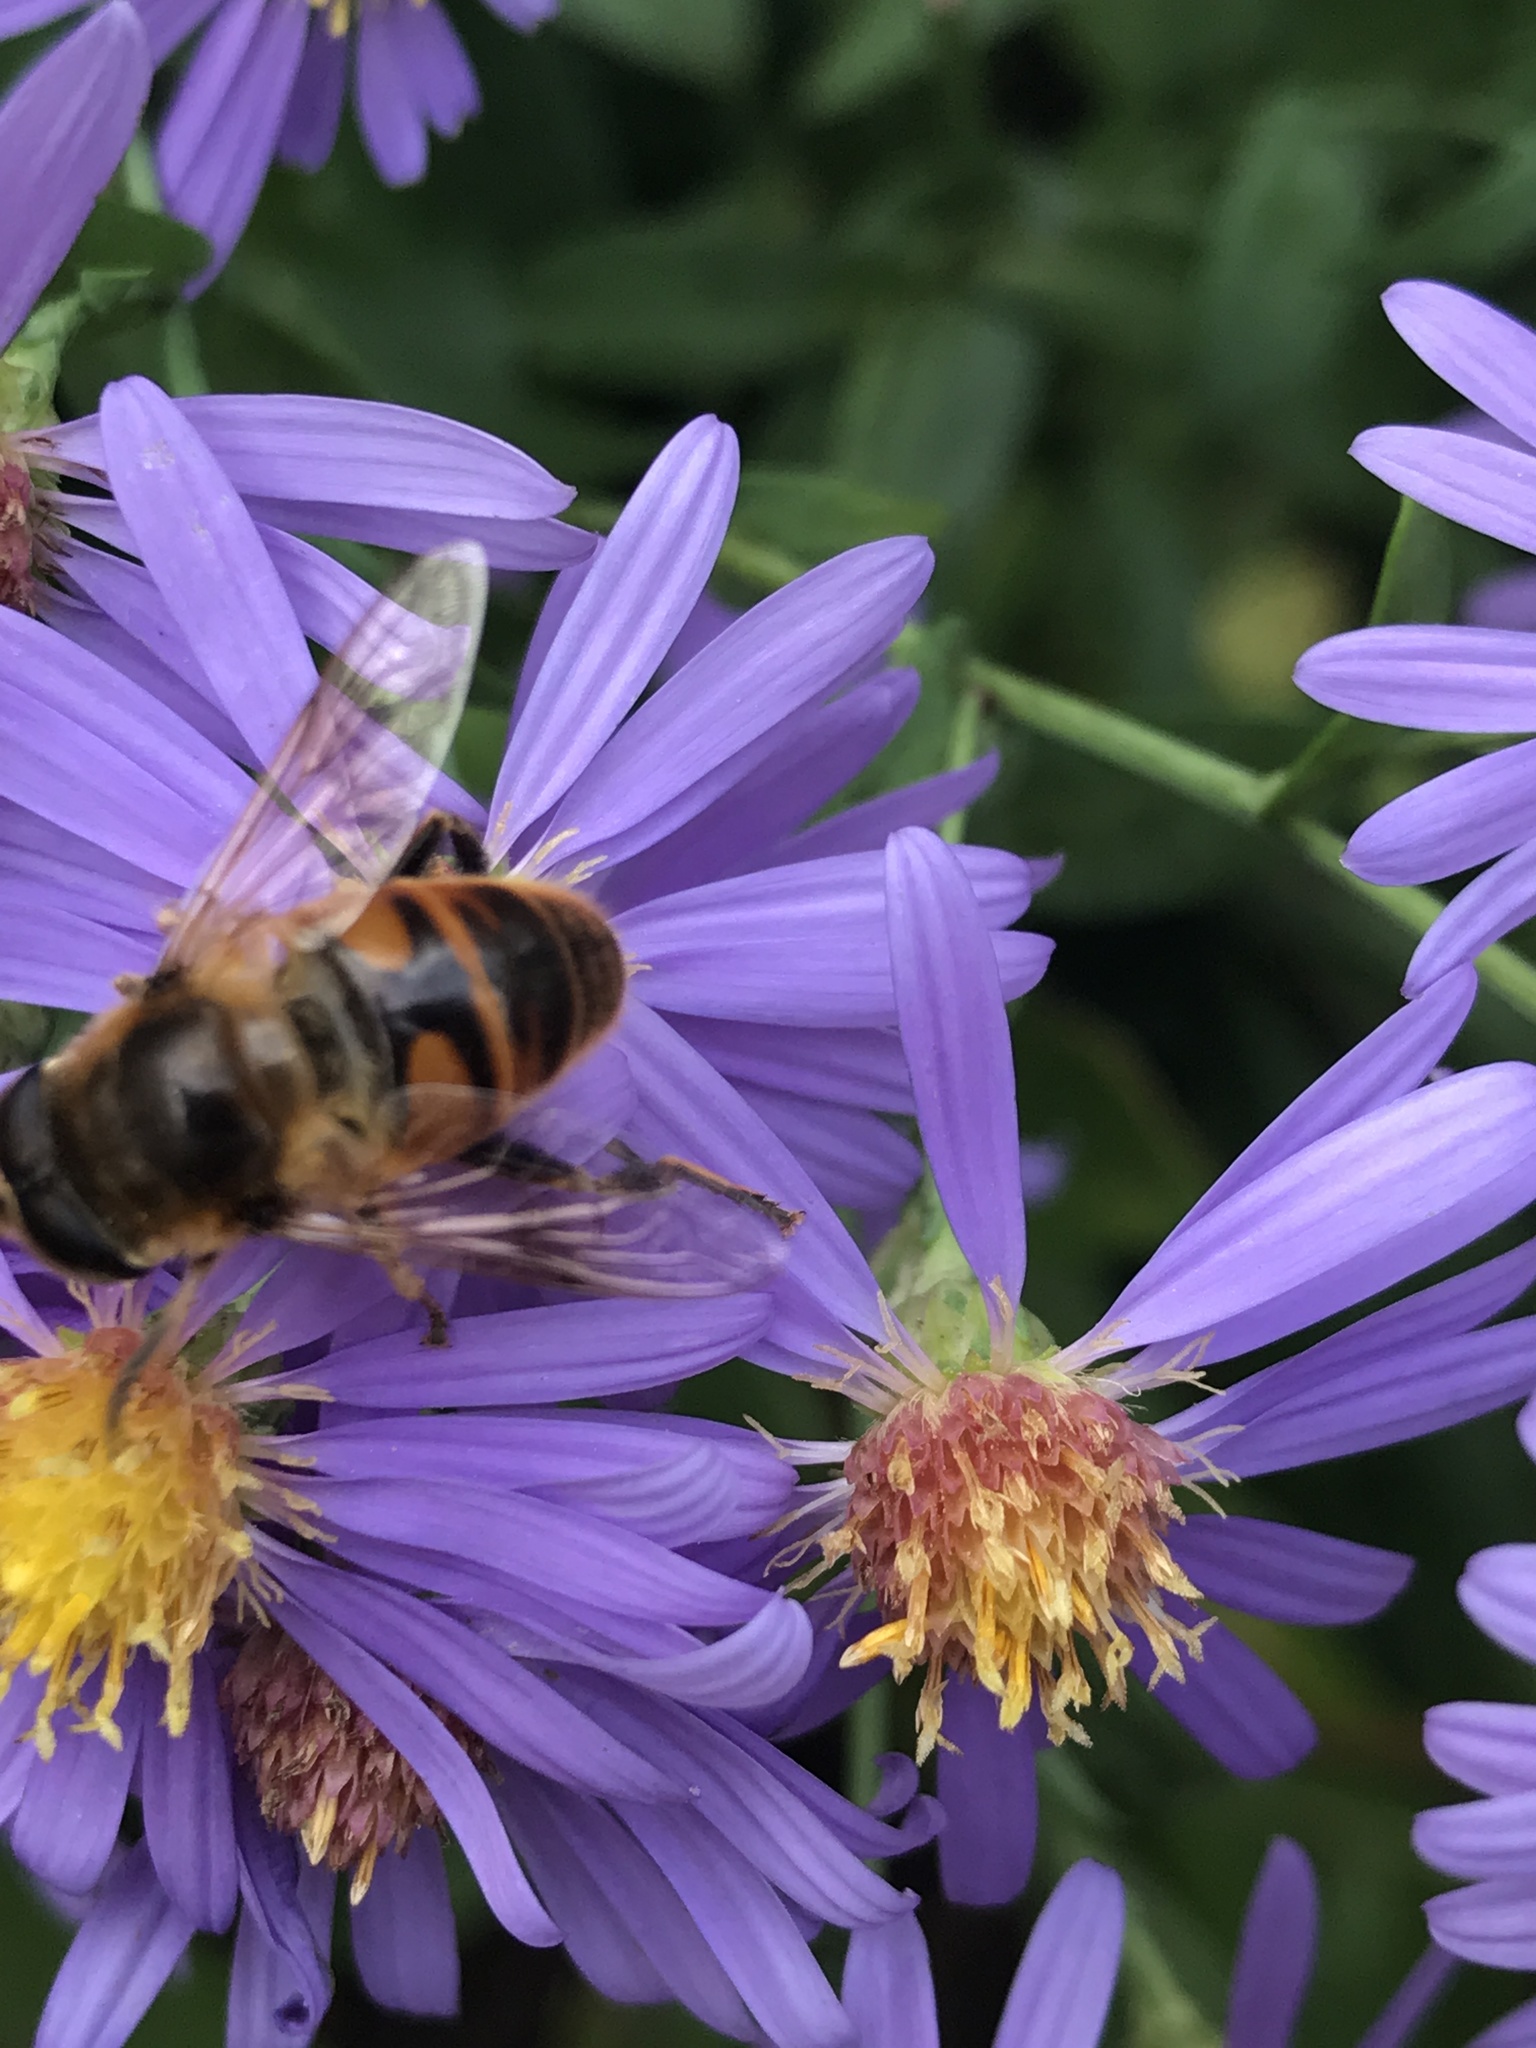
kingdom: Animalia
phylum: Arthropoda
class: Insecta
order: Diptera
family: Syrphidae
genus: Eristalis
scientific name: Eristalis tenax
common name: Drone fly
